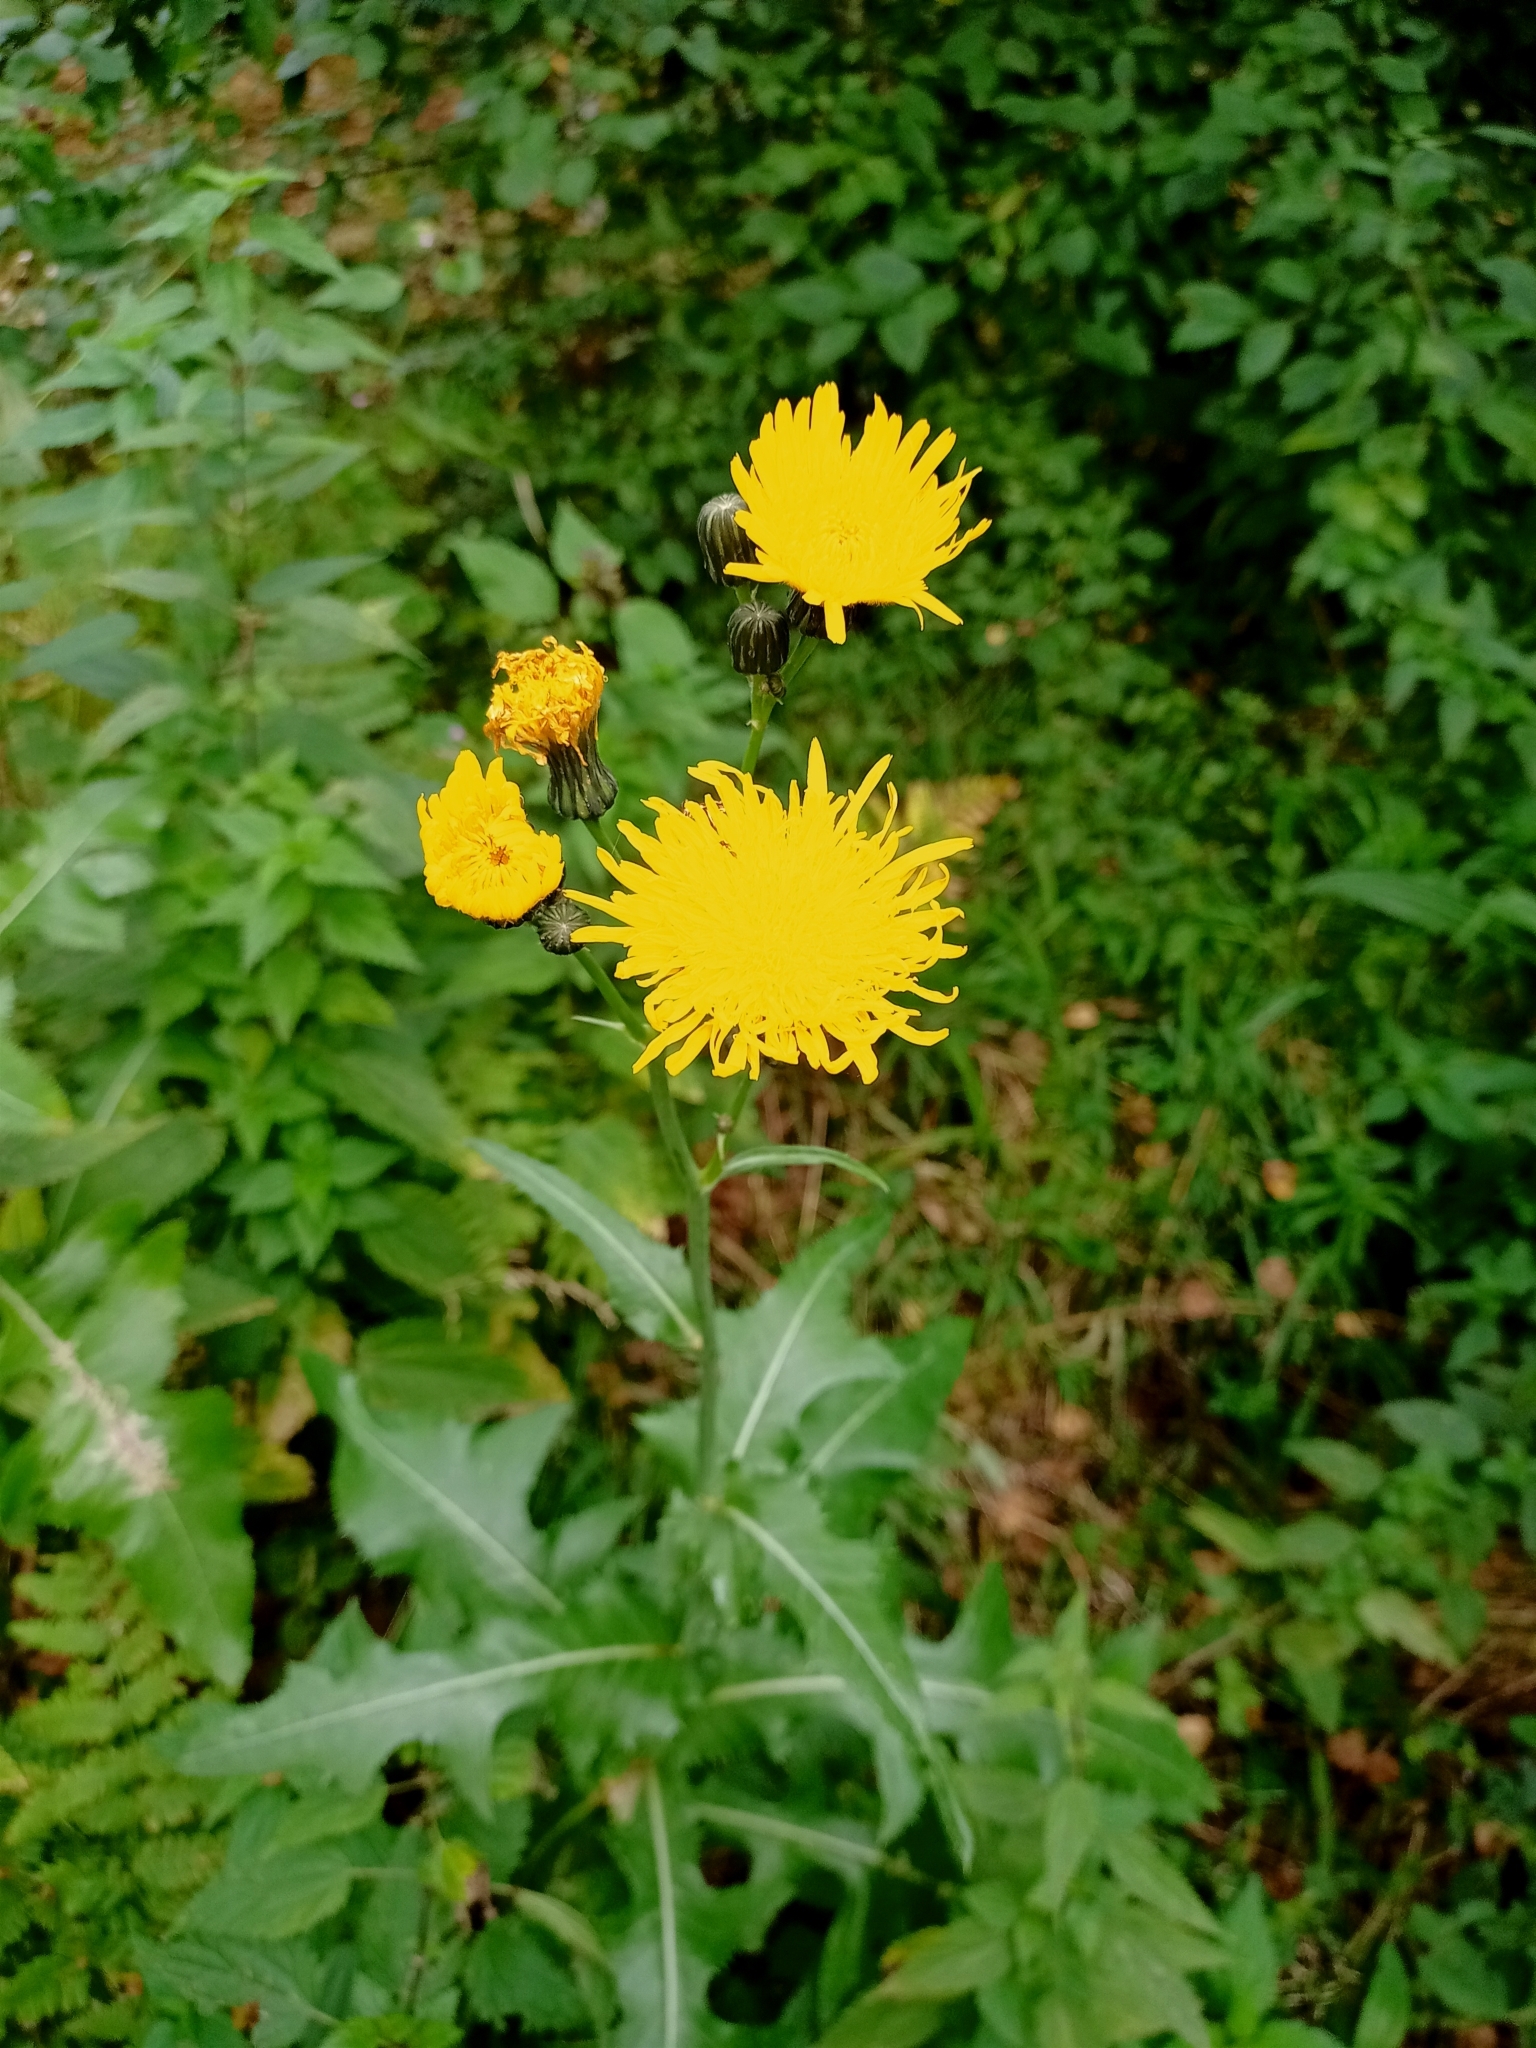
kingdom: Plantae
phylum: Tracheophyta
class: Magnoliopsida
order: Asterales
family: Asteraceae
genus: Sonchus
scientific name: Sonchus arvensis
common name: Perennial sow-thistle
